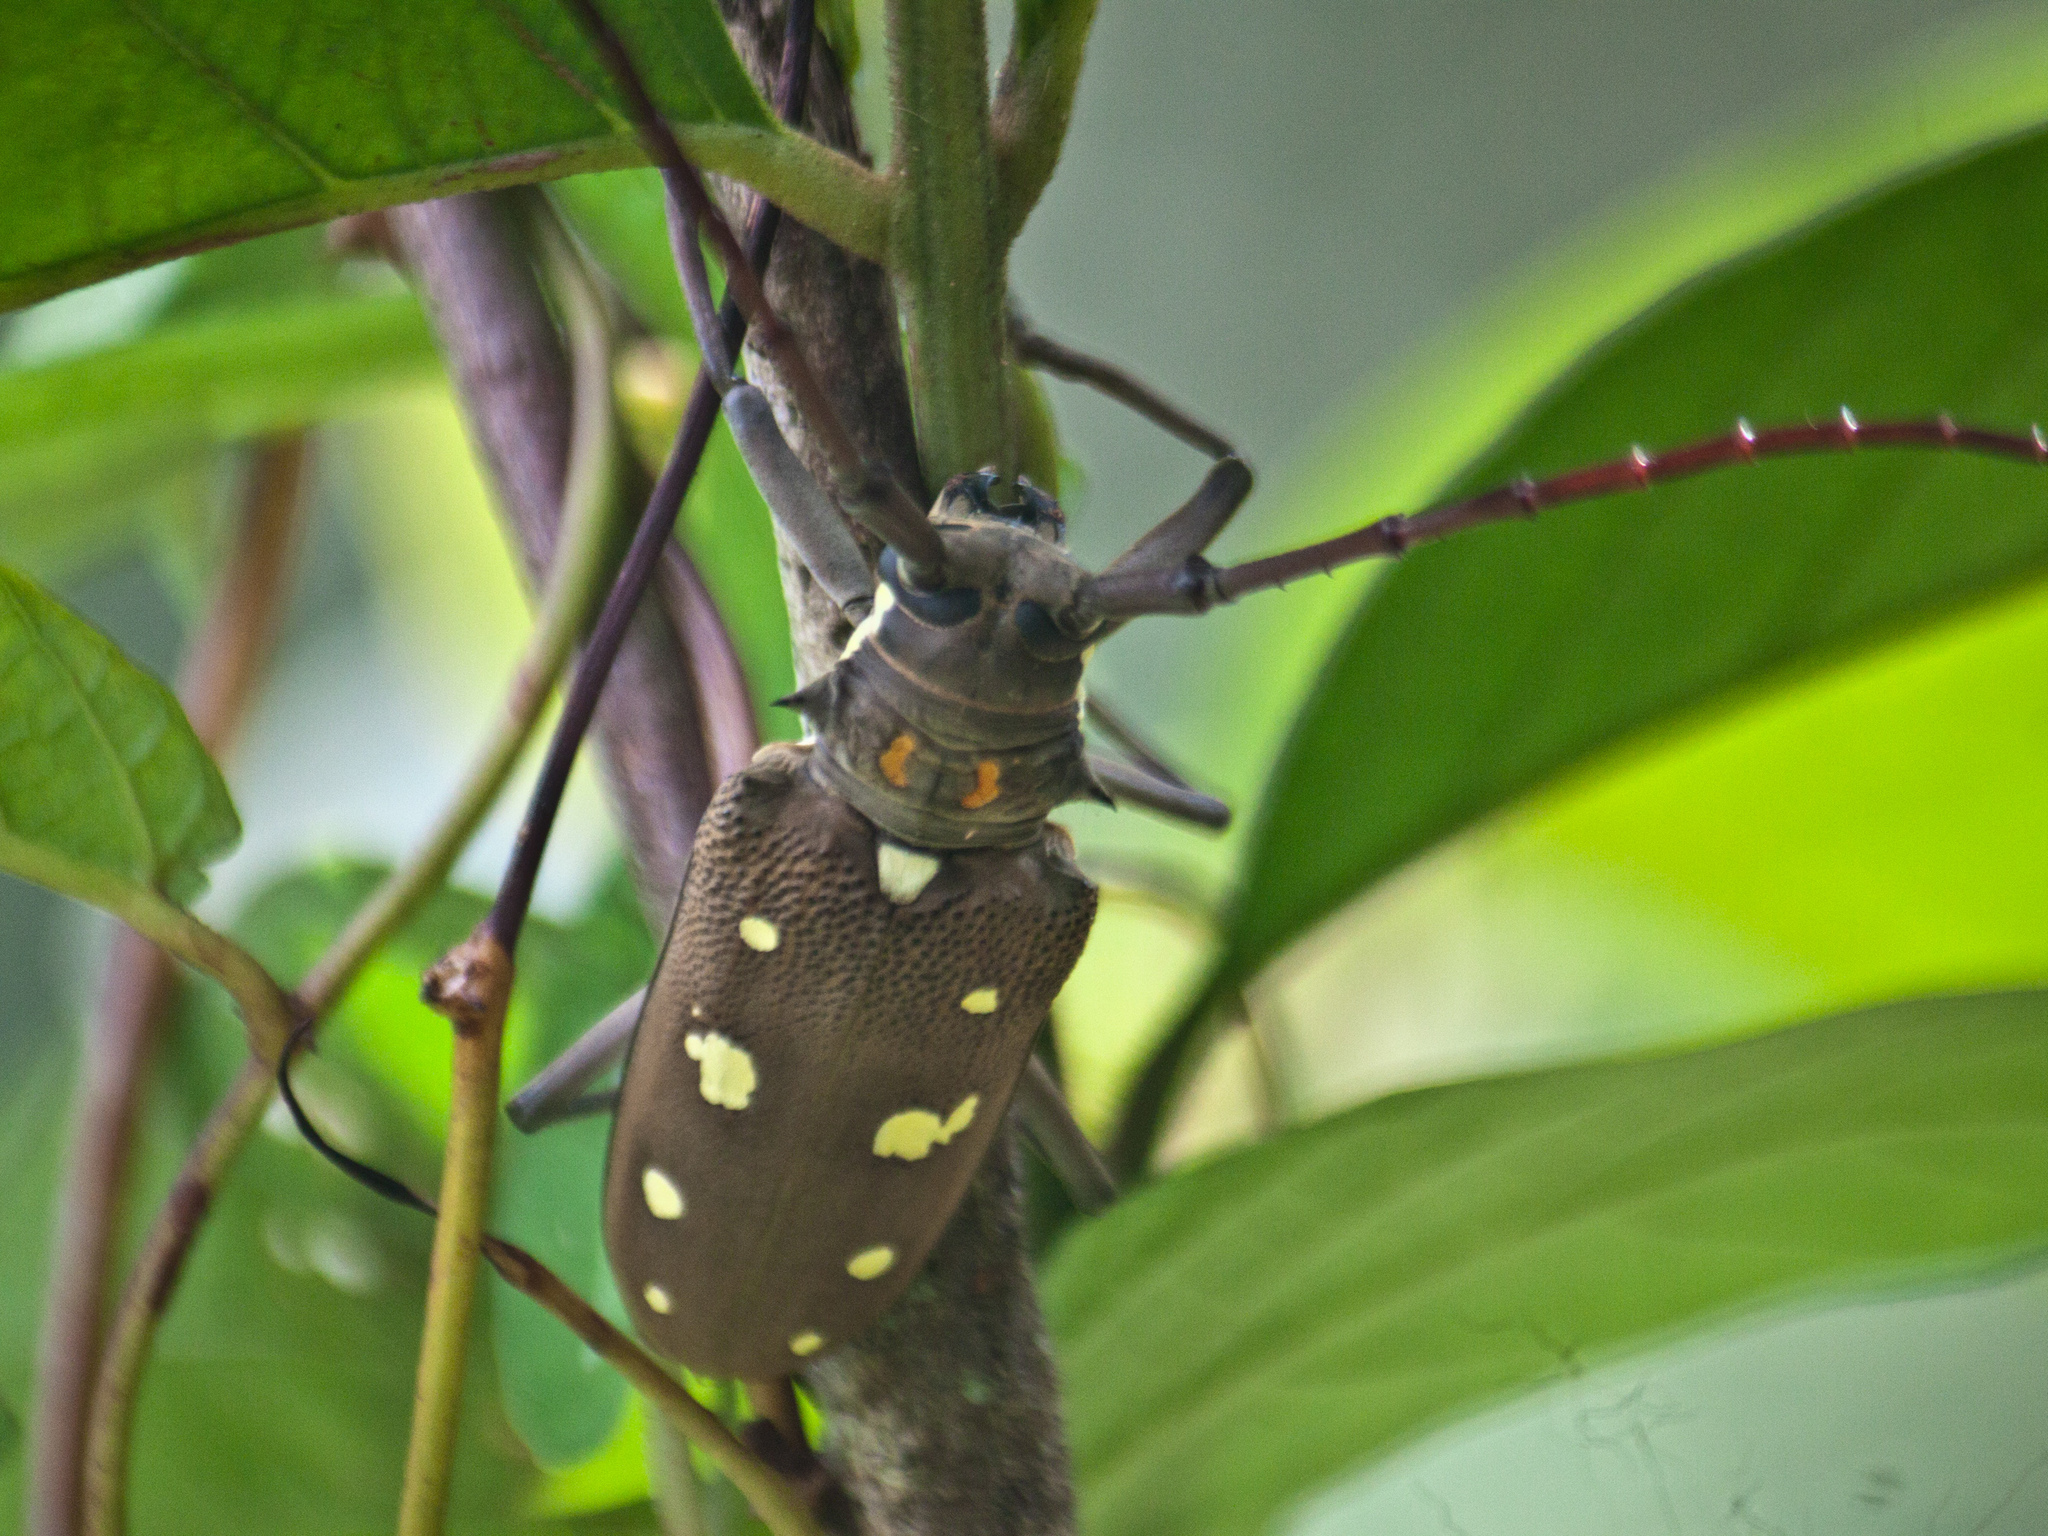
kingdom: Animalia
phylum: Arthropoda
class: Insecta
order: Coleoptera
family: Cerambycidae
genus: Batocera
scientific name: Batocera rubus
